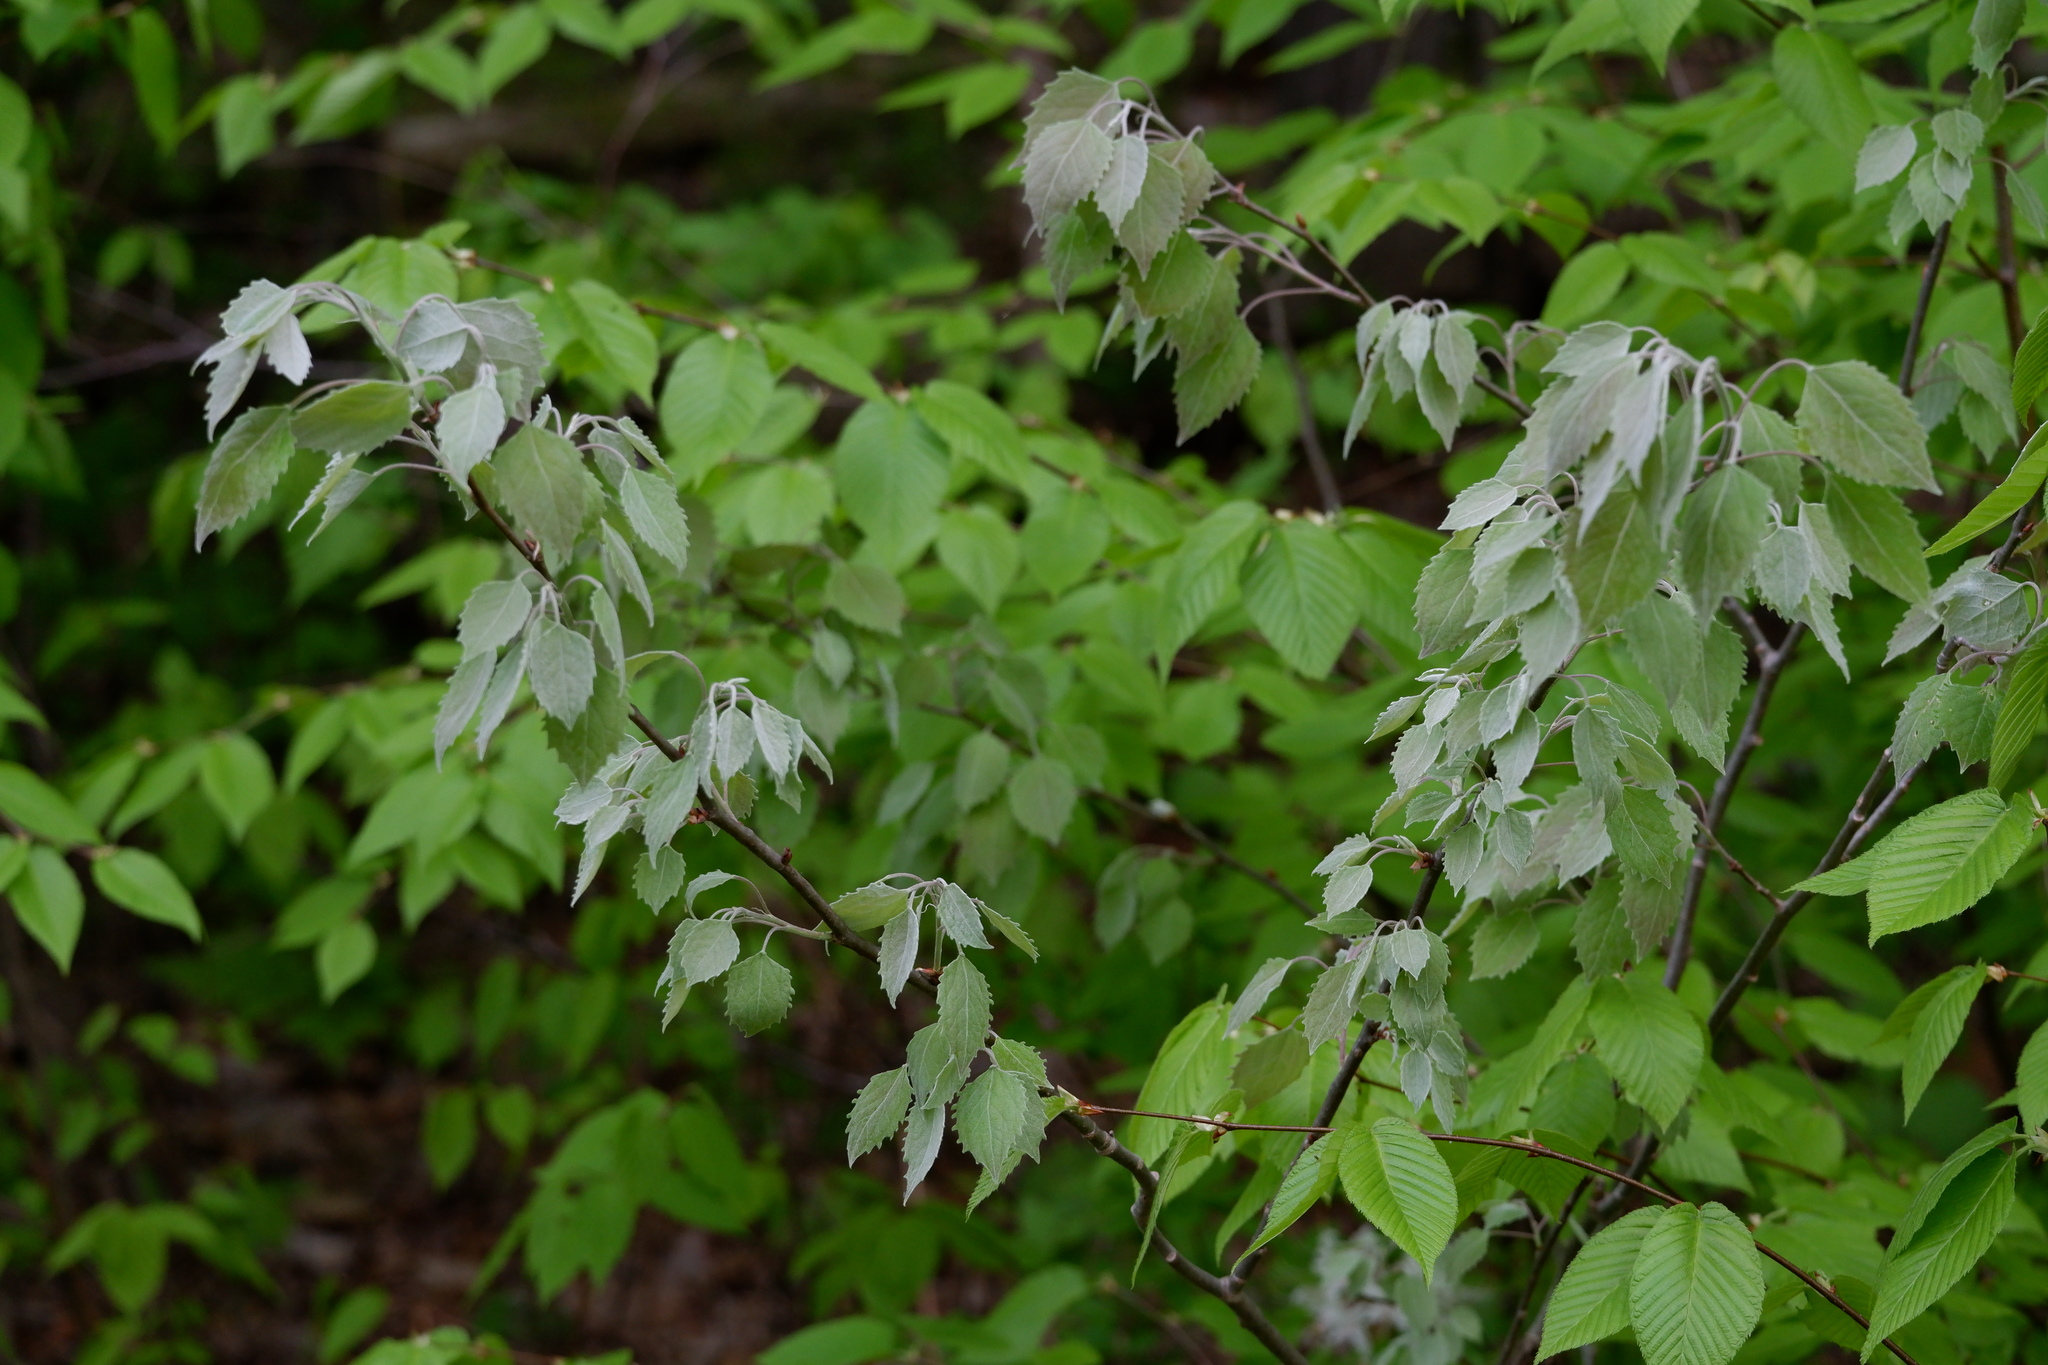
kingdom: Plantae
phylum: Tracheophyta
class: Magnoliopsida
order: Malpighiales
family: Salicaceae
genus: Populus
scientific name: Populus grandidentata
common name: Bigtooth aspen
